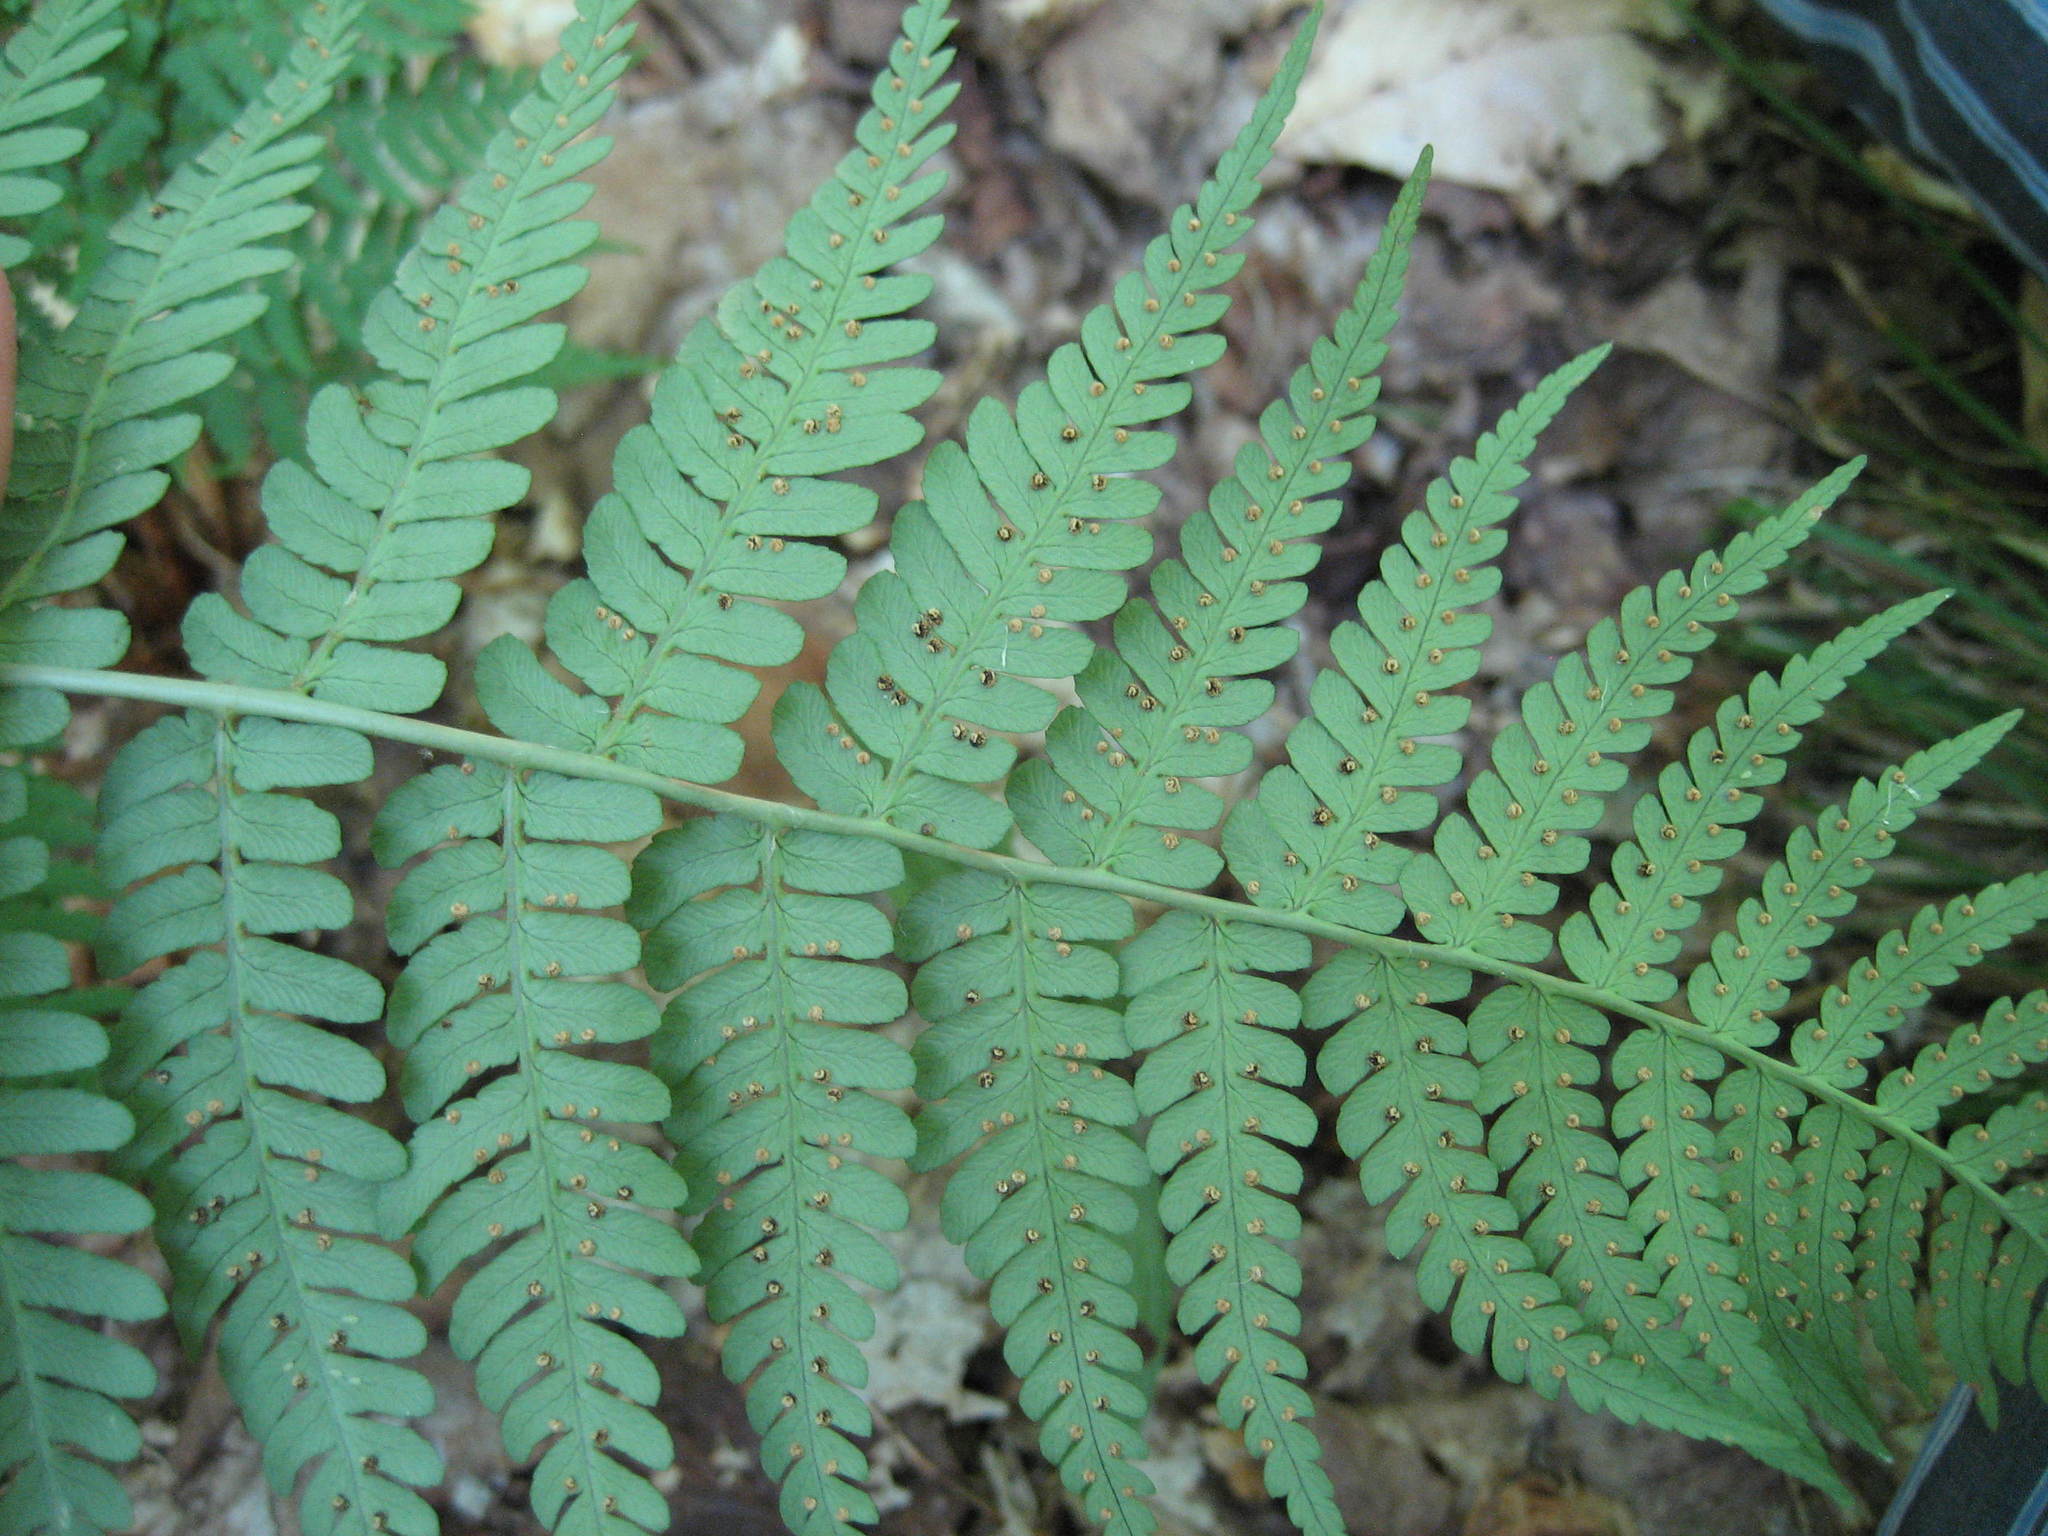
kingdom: Plantae
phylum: Tracheophyta
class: Polypodiopsida
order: Polypodiales
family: Dryopteridaceae
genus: Dryopteris
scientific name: Dryopteris marginalis
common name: Marginal wood fern
